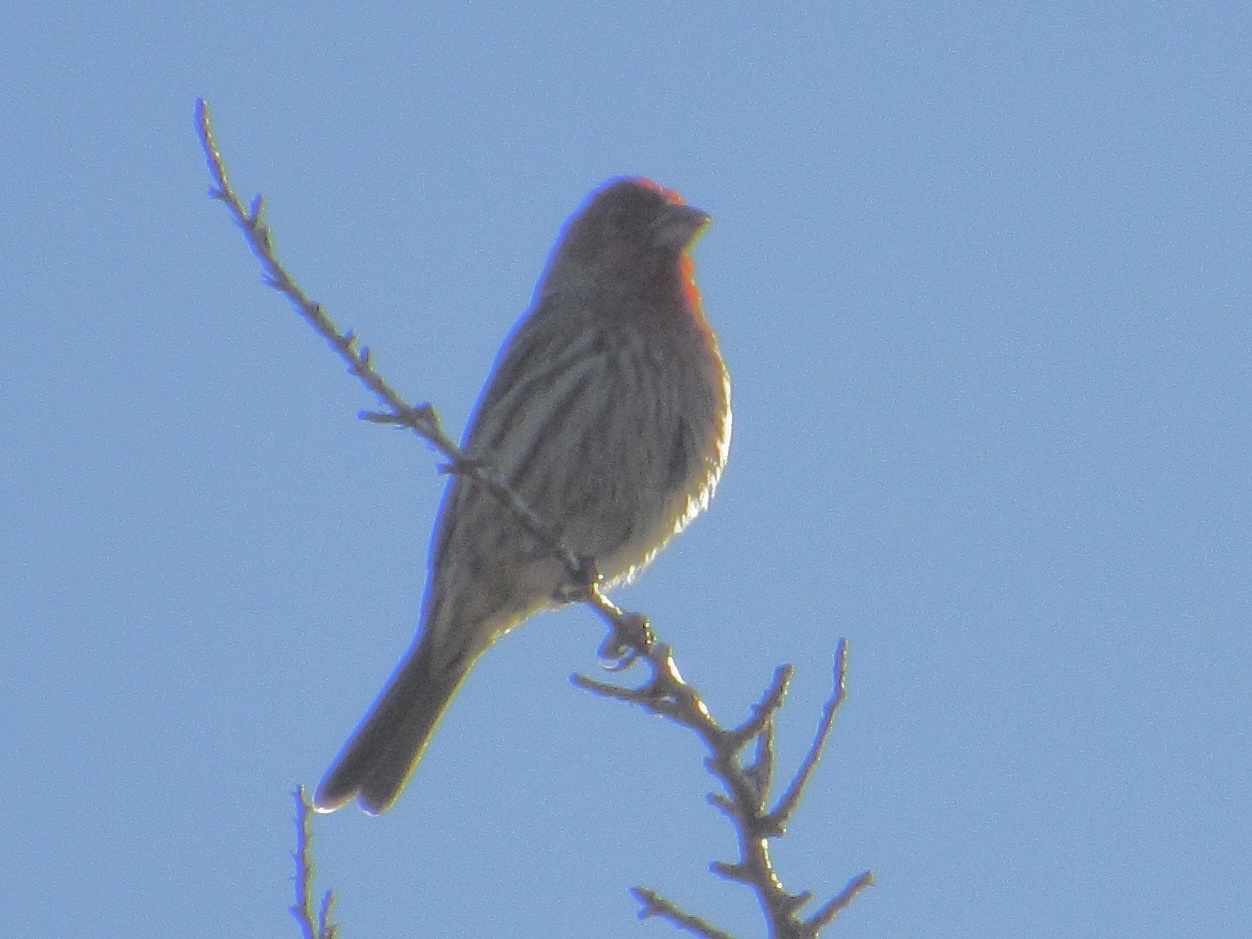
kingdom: Animalia
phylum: Chordata
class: Aves
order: Passeriformes
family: Fringillidae
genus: Haemorhous
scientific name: Haemorhous mexicanus
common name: House finch
